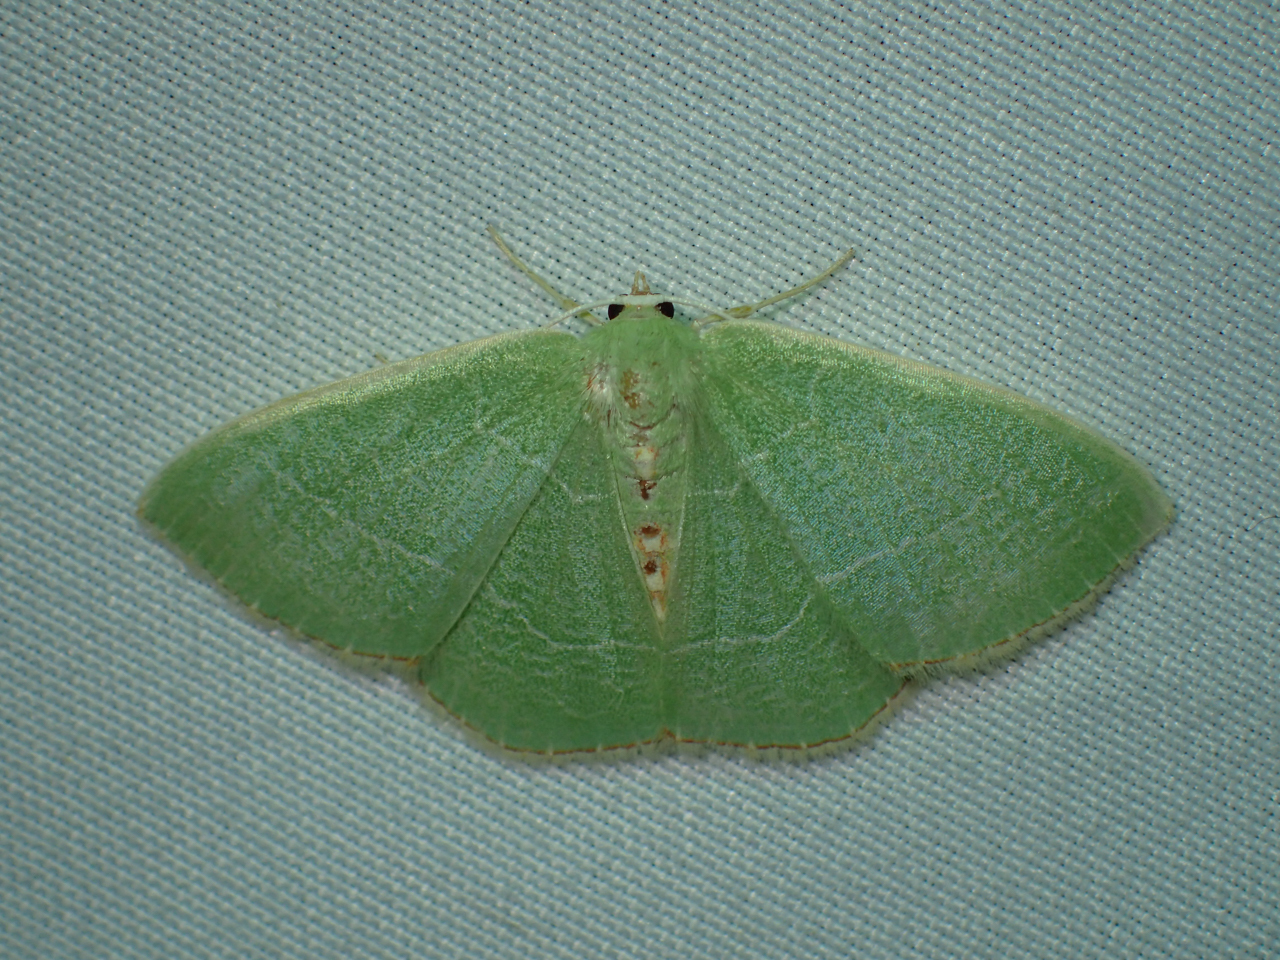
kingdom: Animalia
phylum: Arthropoda
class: Insecta
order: Lepidoptera
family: Geometridae
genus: Nemoria
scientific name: Nemoria bistriaria
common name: Red-fringed emerald
